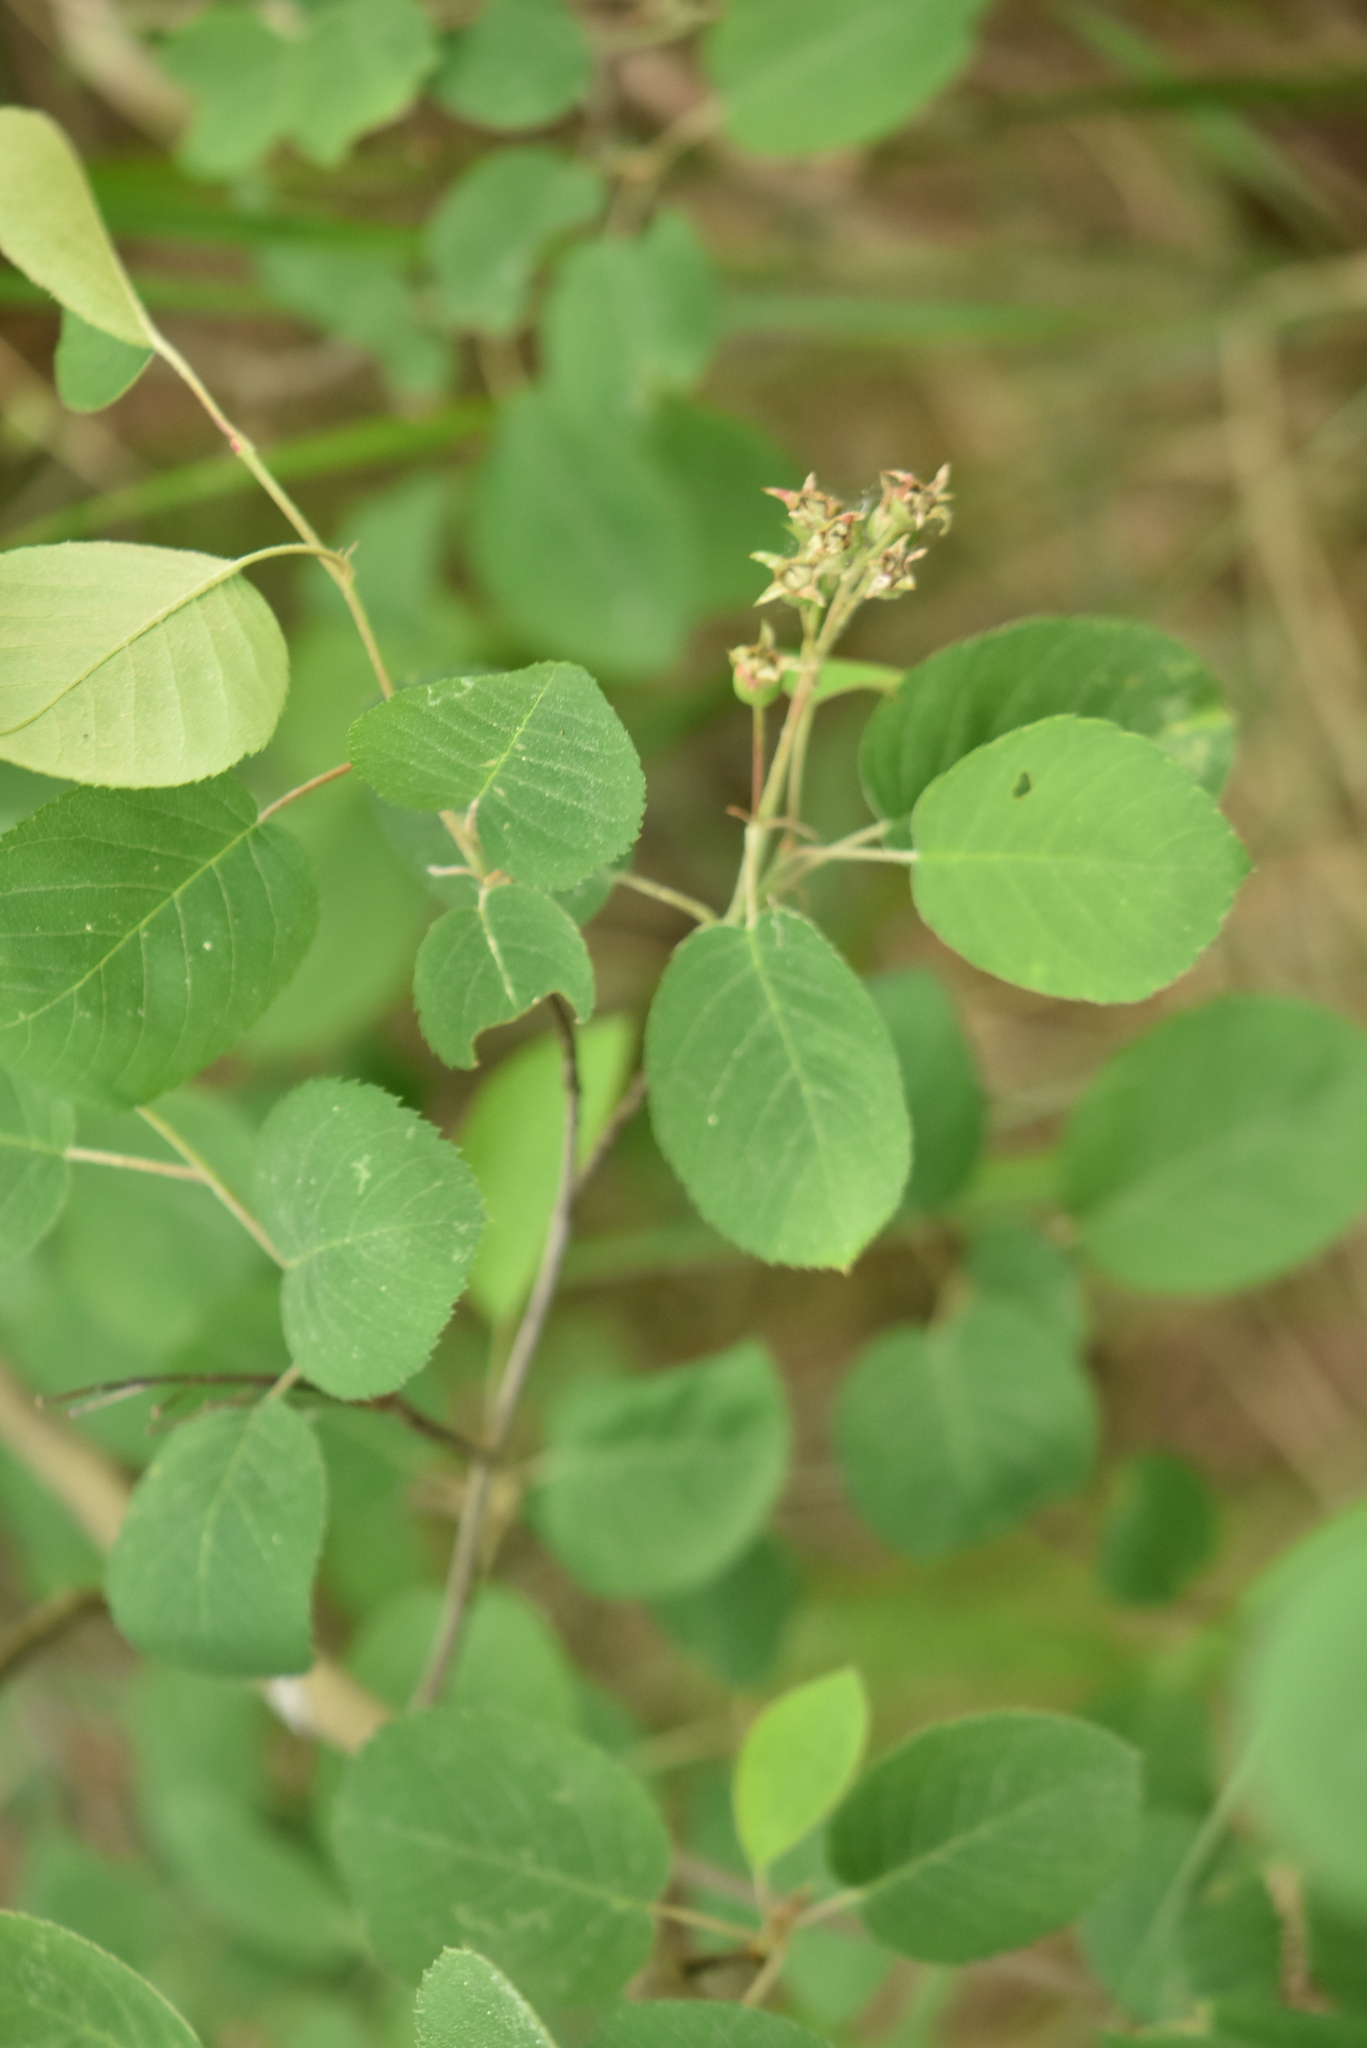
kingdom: Plantae
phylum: Tracheophyta
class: Magnoliopsida
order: Rosales
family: Rosaceae
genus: Amelanchier
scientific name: Amelanchier
